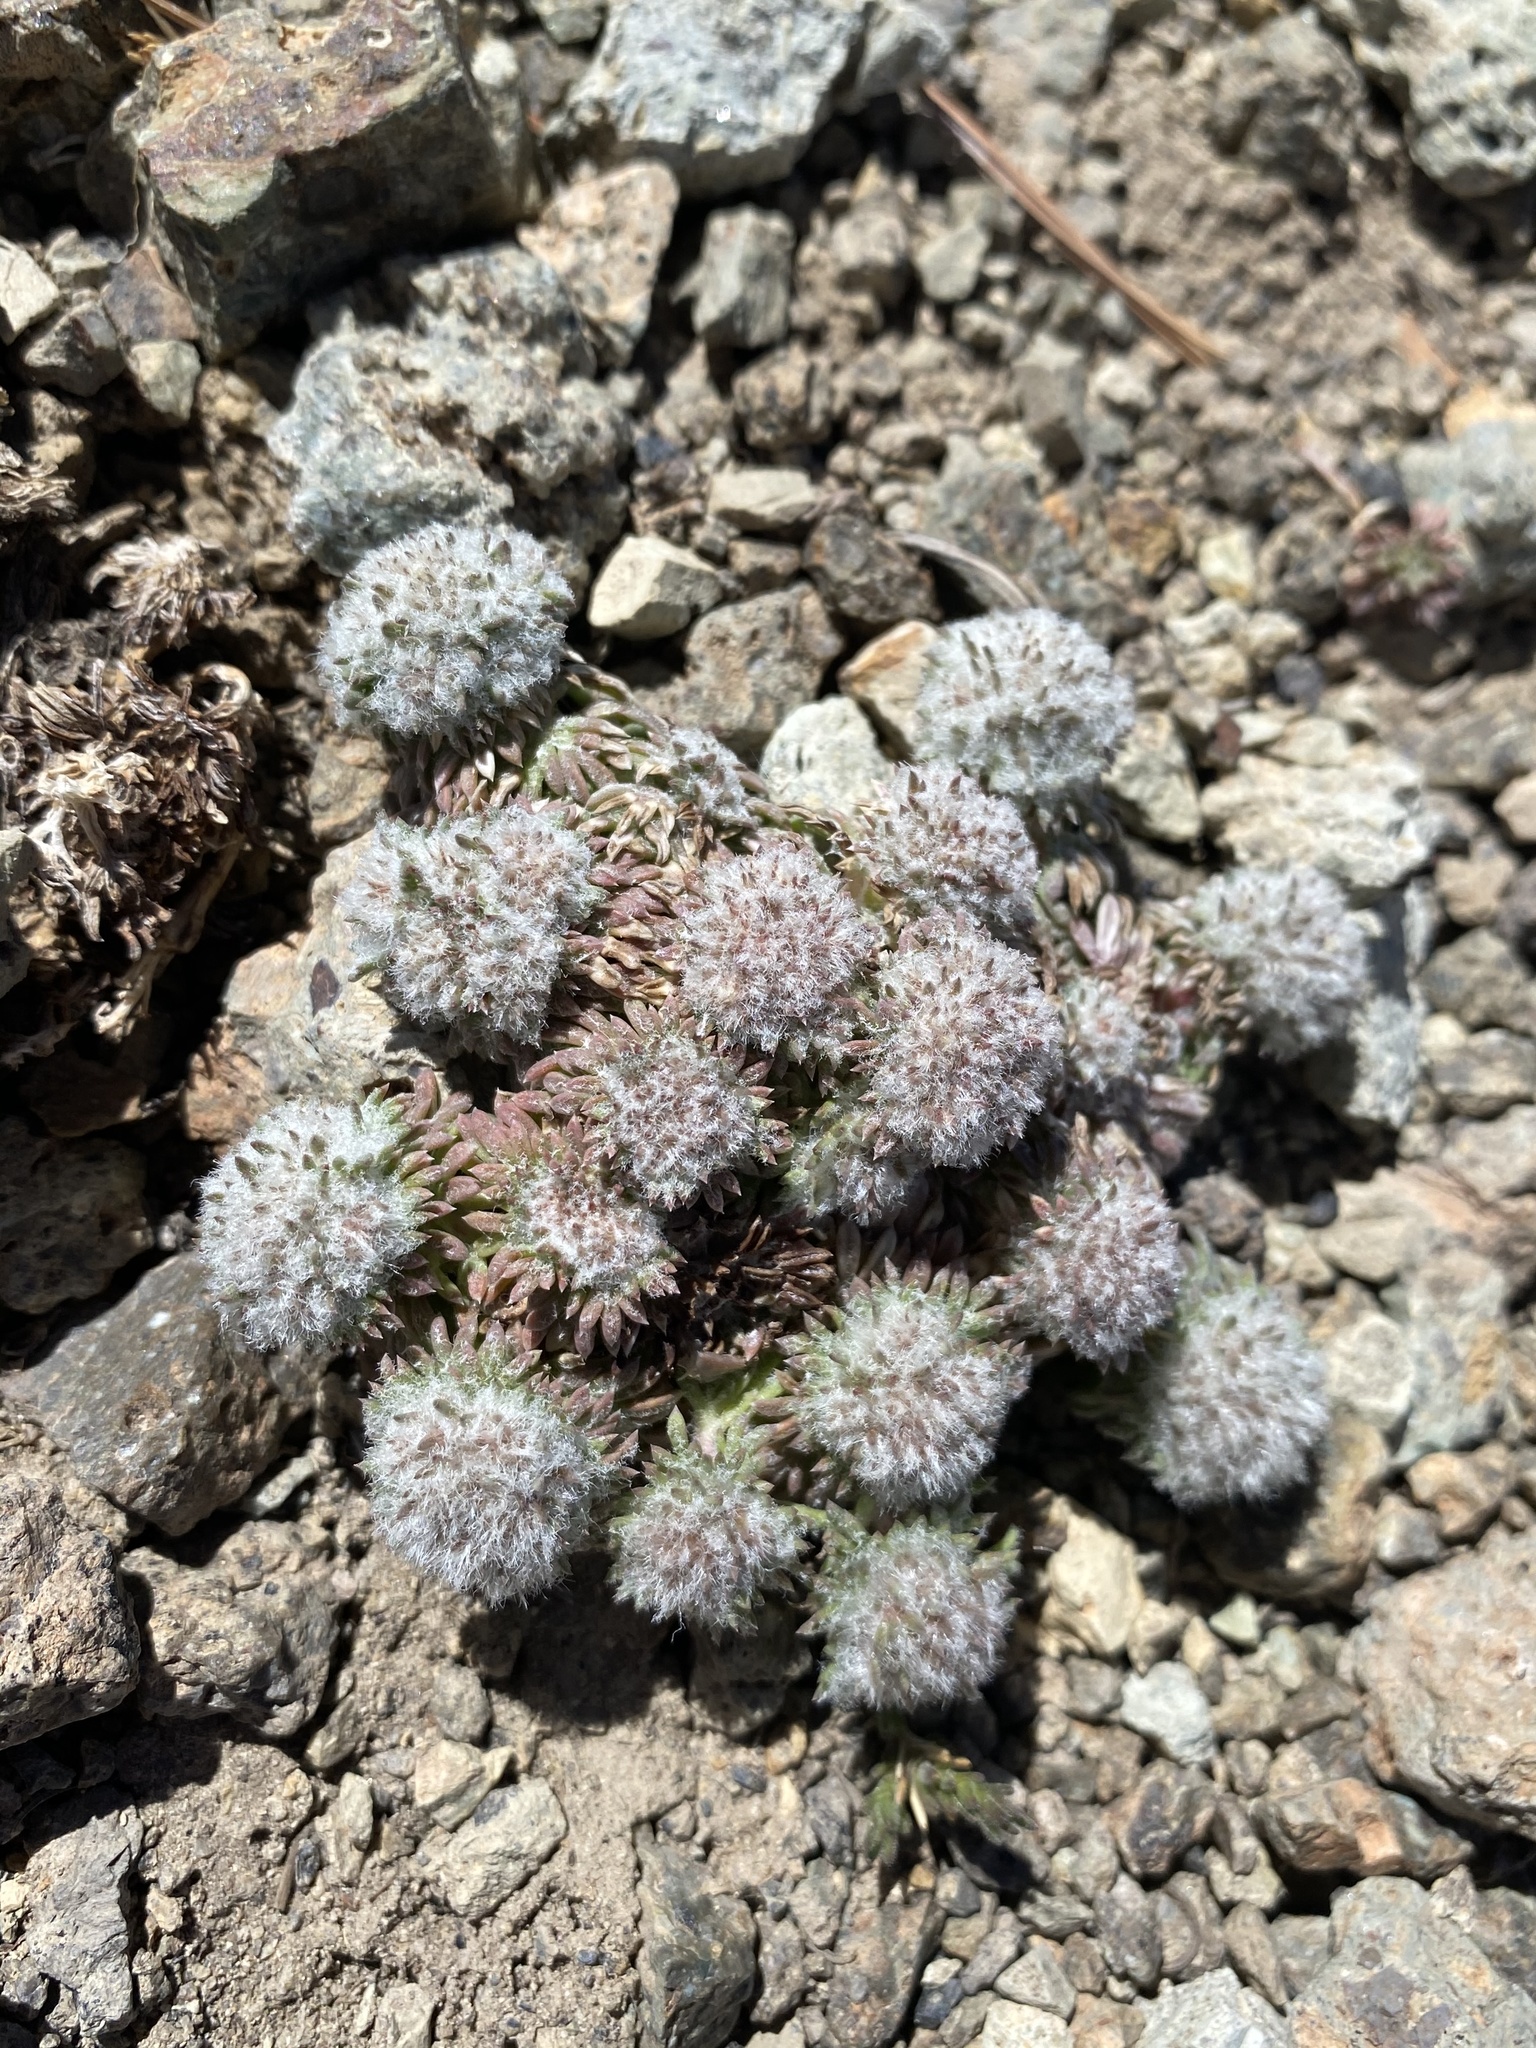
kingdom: Plantae
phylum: Tracheophyta
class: Magnoliopsida
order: Ericales
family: Polemoniaceae
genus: Ipomopsis
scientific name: Ipomopsis congesta
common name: Ball-head gilia
